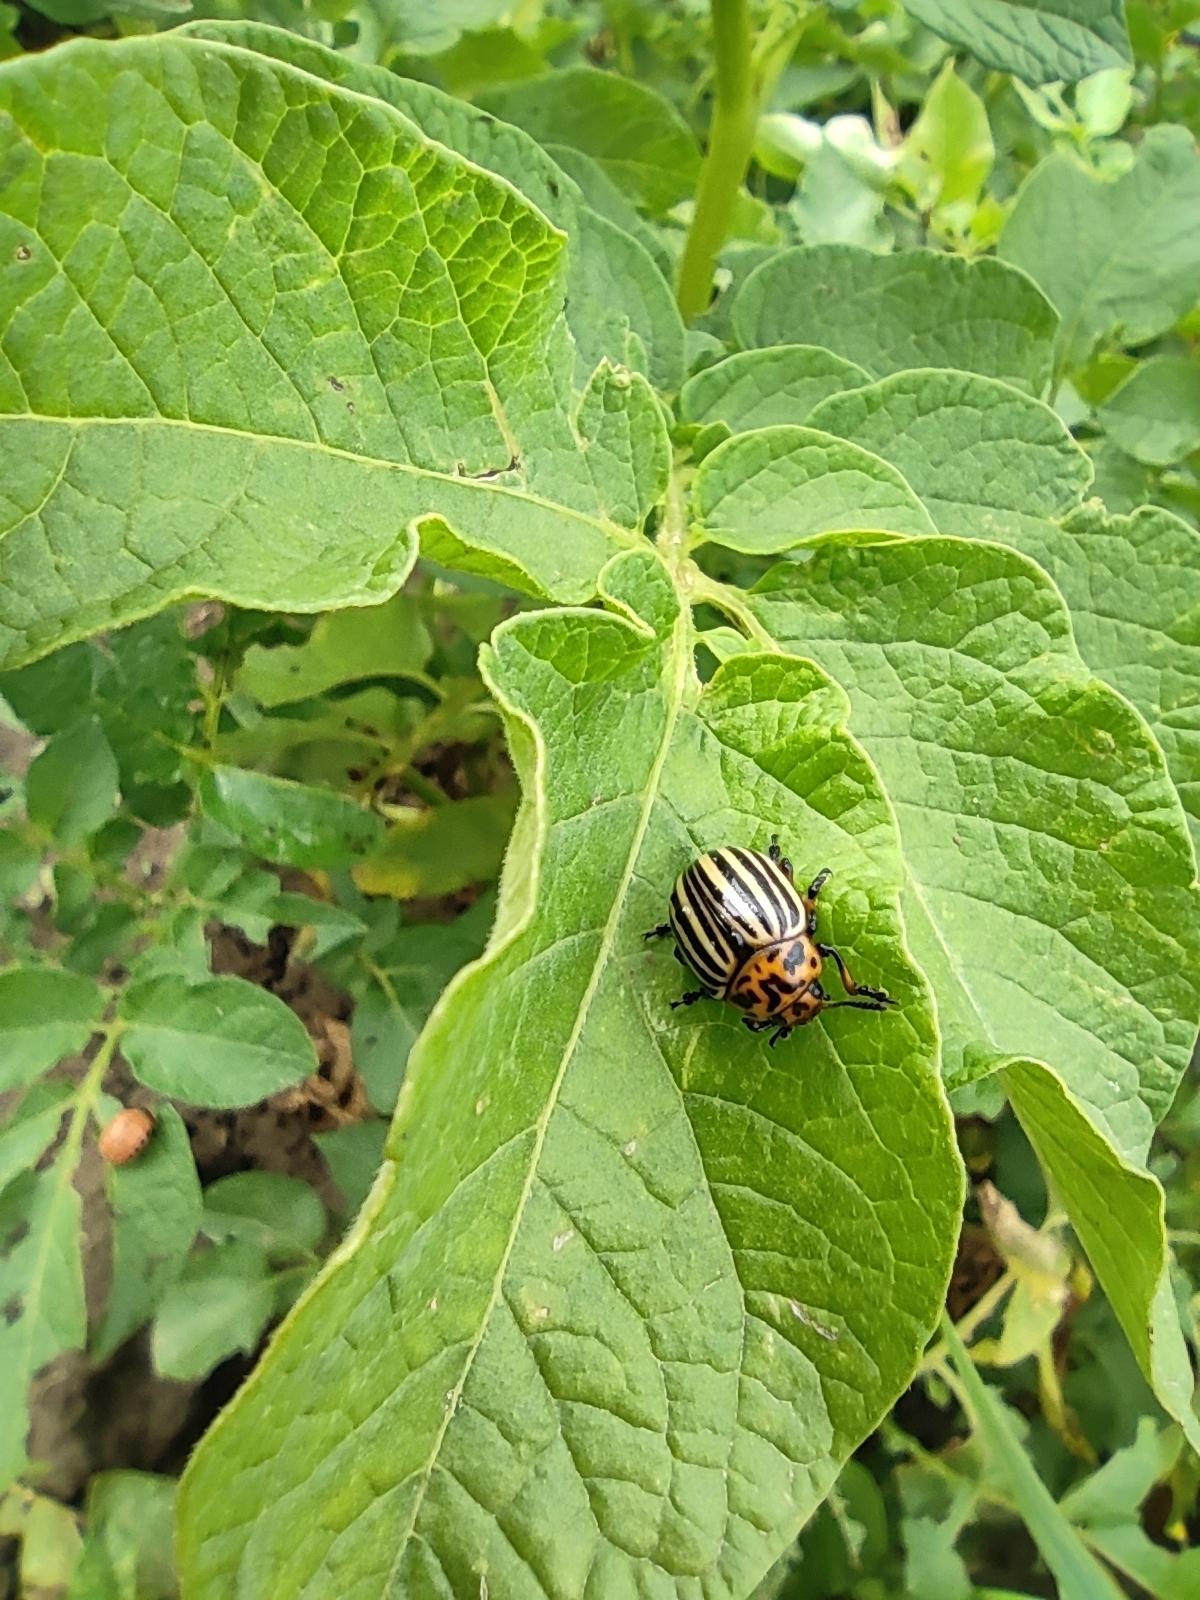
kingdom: Animalia
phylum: Arthropoda
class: Insecta
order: Coleoptera
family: Chrysomelidae
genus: Leptinotarsa
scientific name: Leptinotarsa decemlineata
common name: Colorado potato beetle
